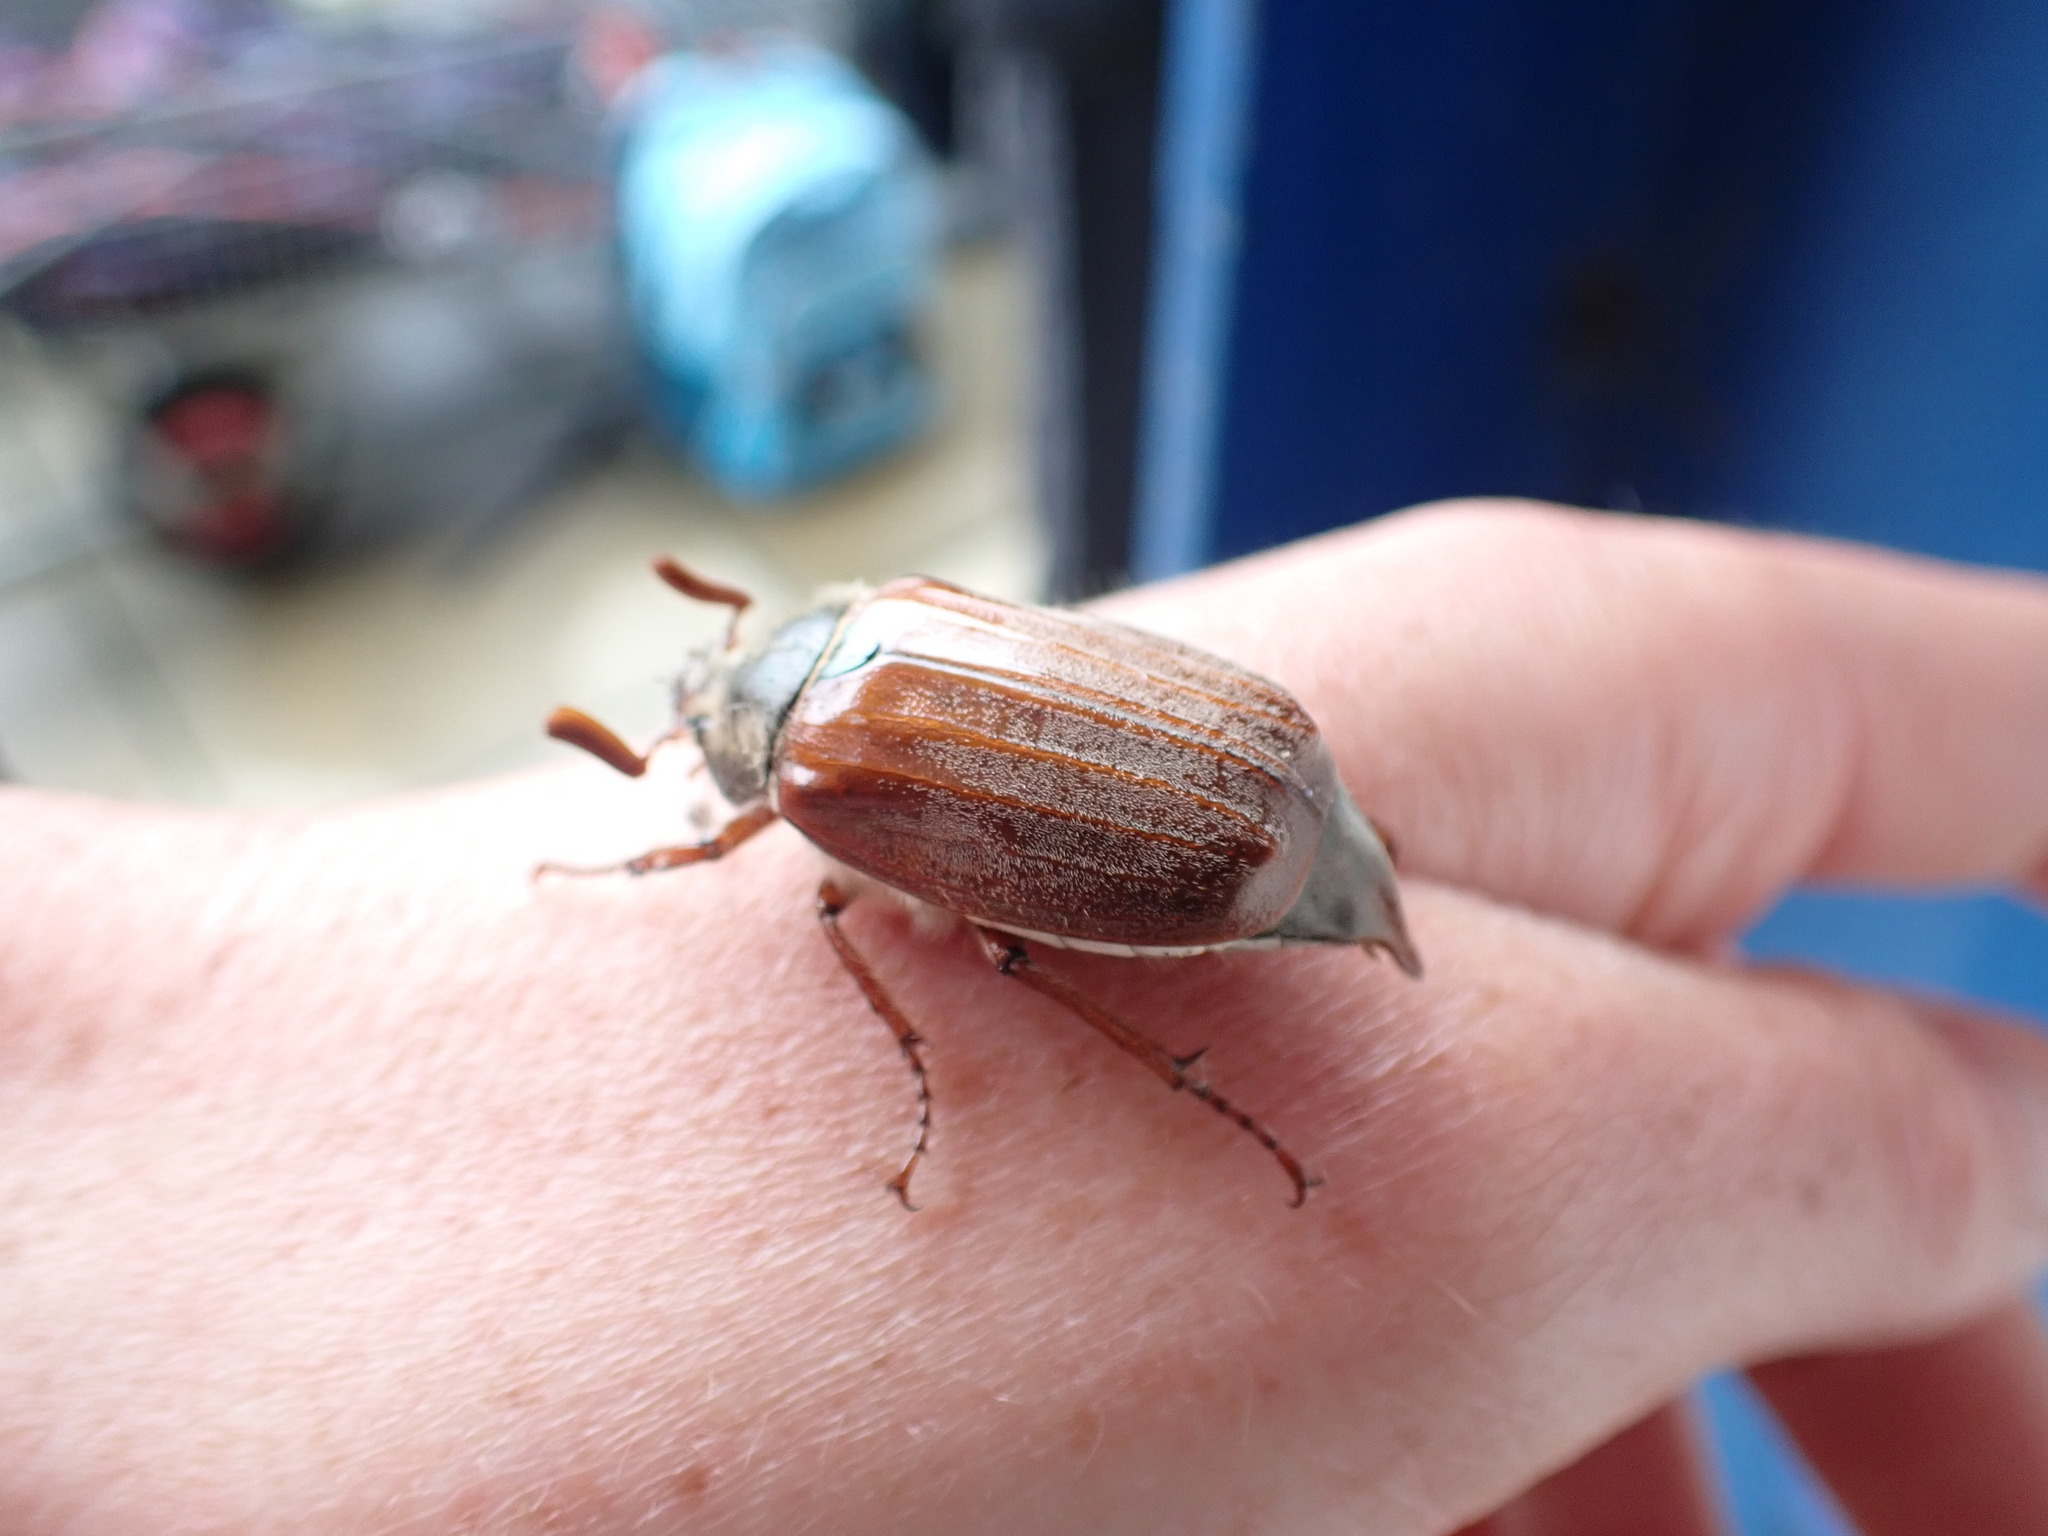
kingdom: Animalia
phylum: Arthropoda
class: Insecta
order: Coleoptera
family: Scarabaeidae
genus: Melolontha
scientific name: Melolontha melolontha
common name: Cockchafer maybeetle
